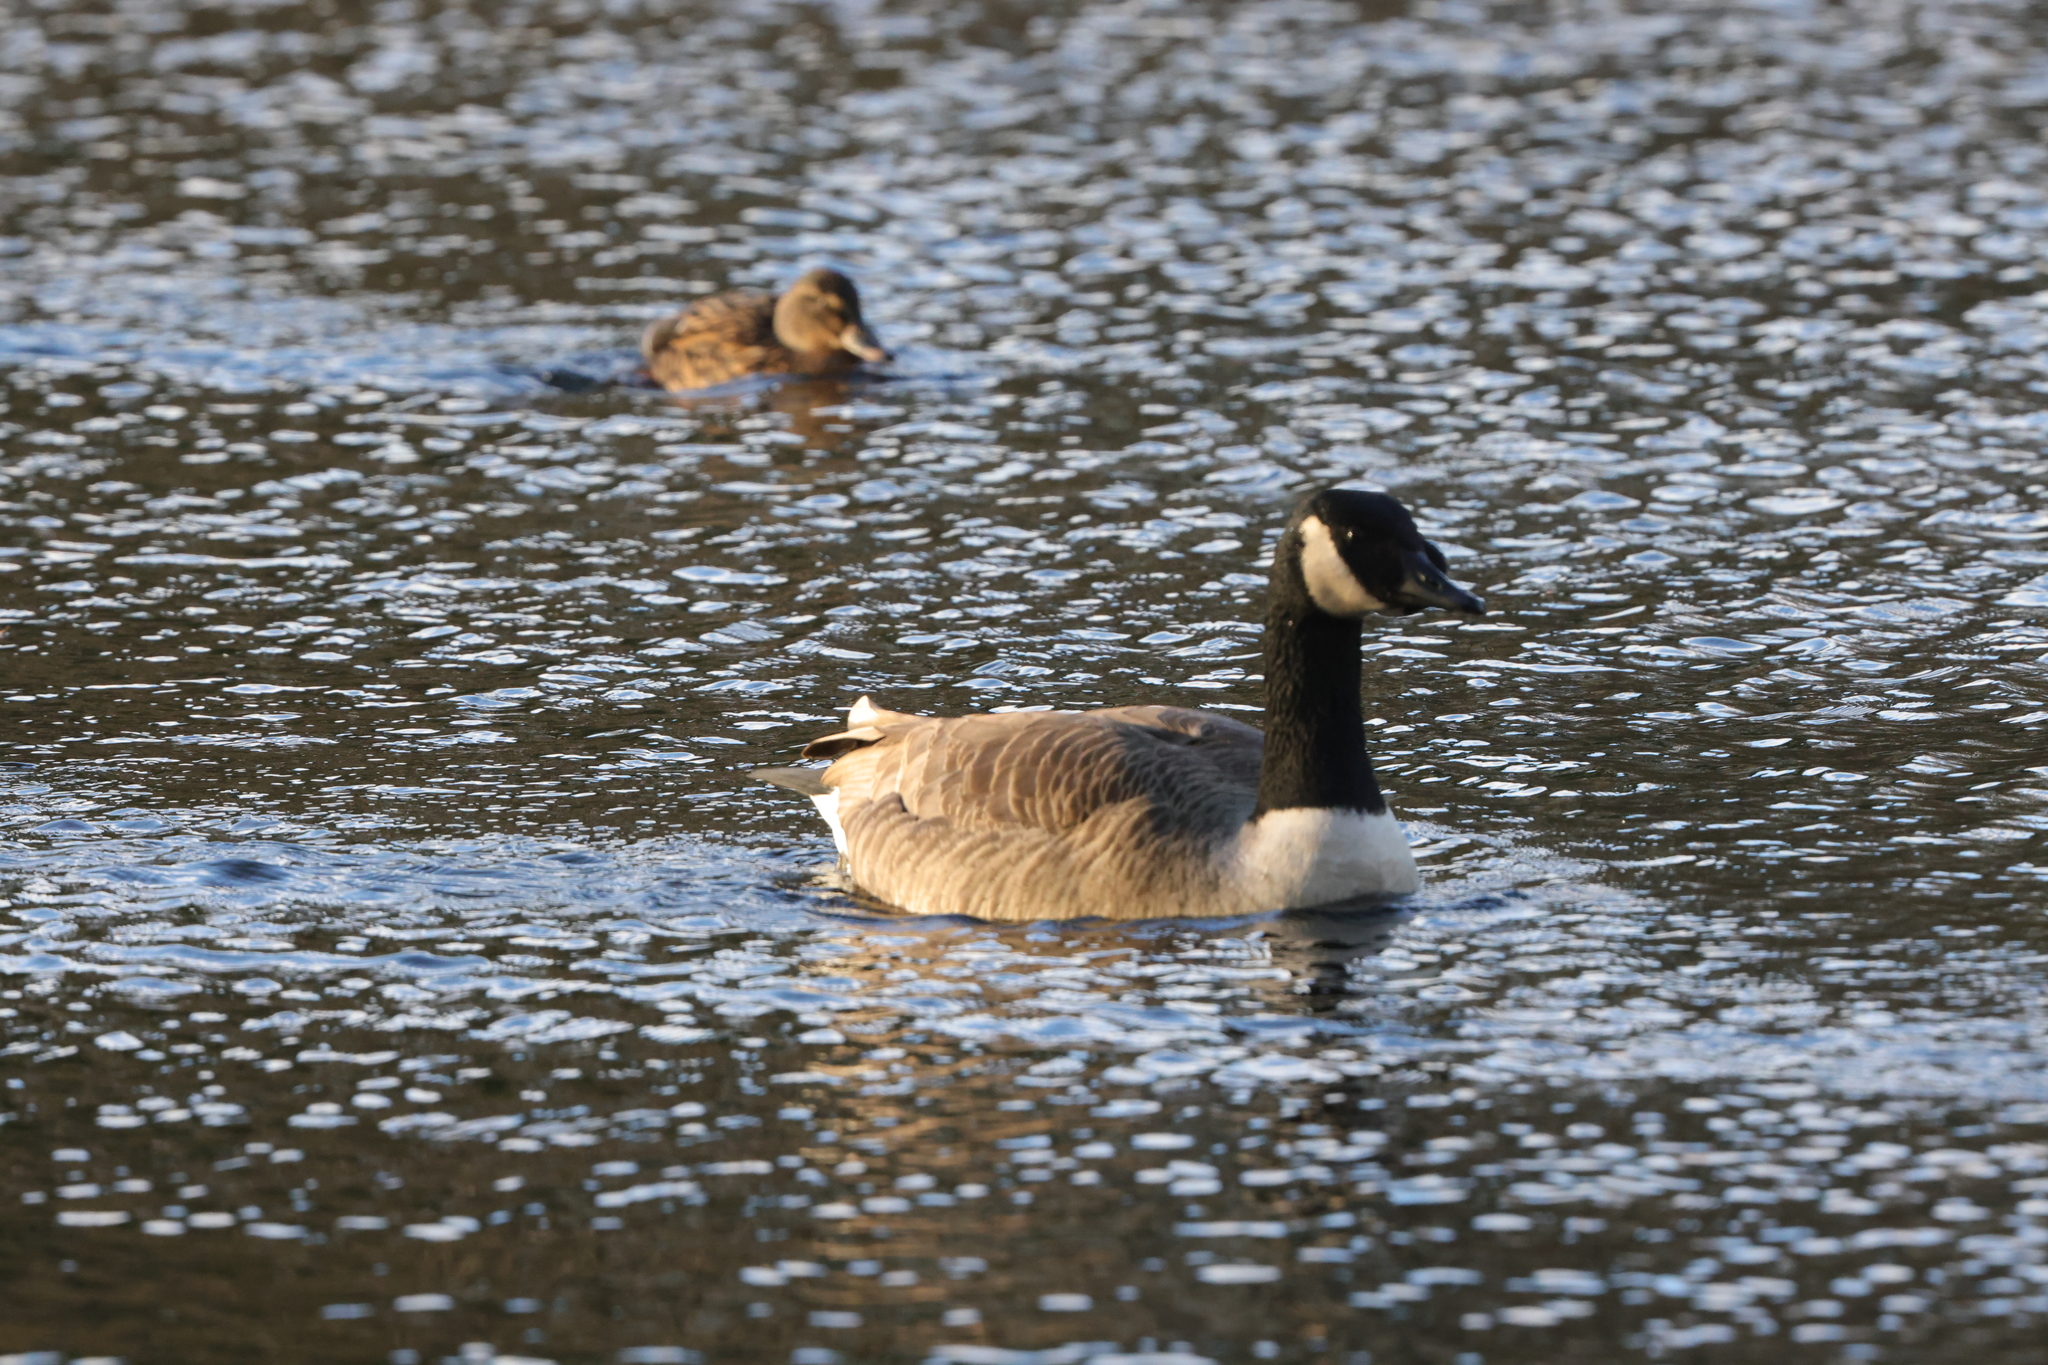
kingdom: Animalia
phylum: Chordata
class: Aves
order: Anseriformes
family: Anatidae
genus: Branta
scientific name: Branta canadensis
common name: Canada goose
